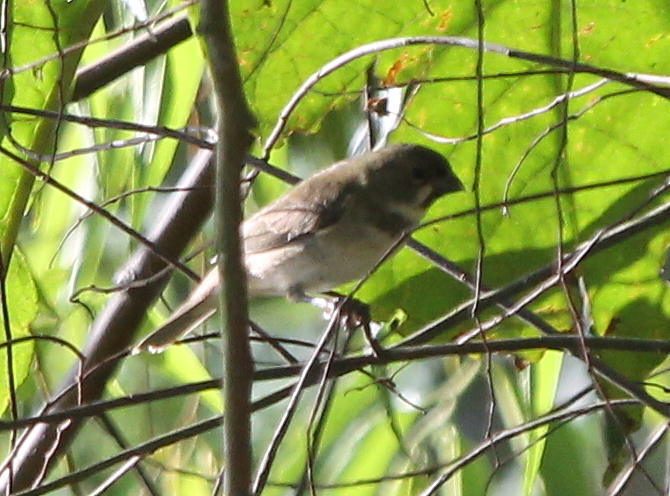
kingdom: Animalia
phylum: Chordata
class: Aves
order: Passeriformes
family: Thraupidae
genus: Sporophila
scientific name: Sporophila caerulescens
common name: Double-collared seedeater
